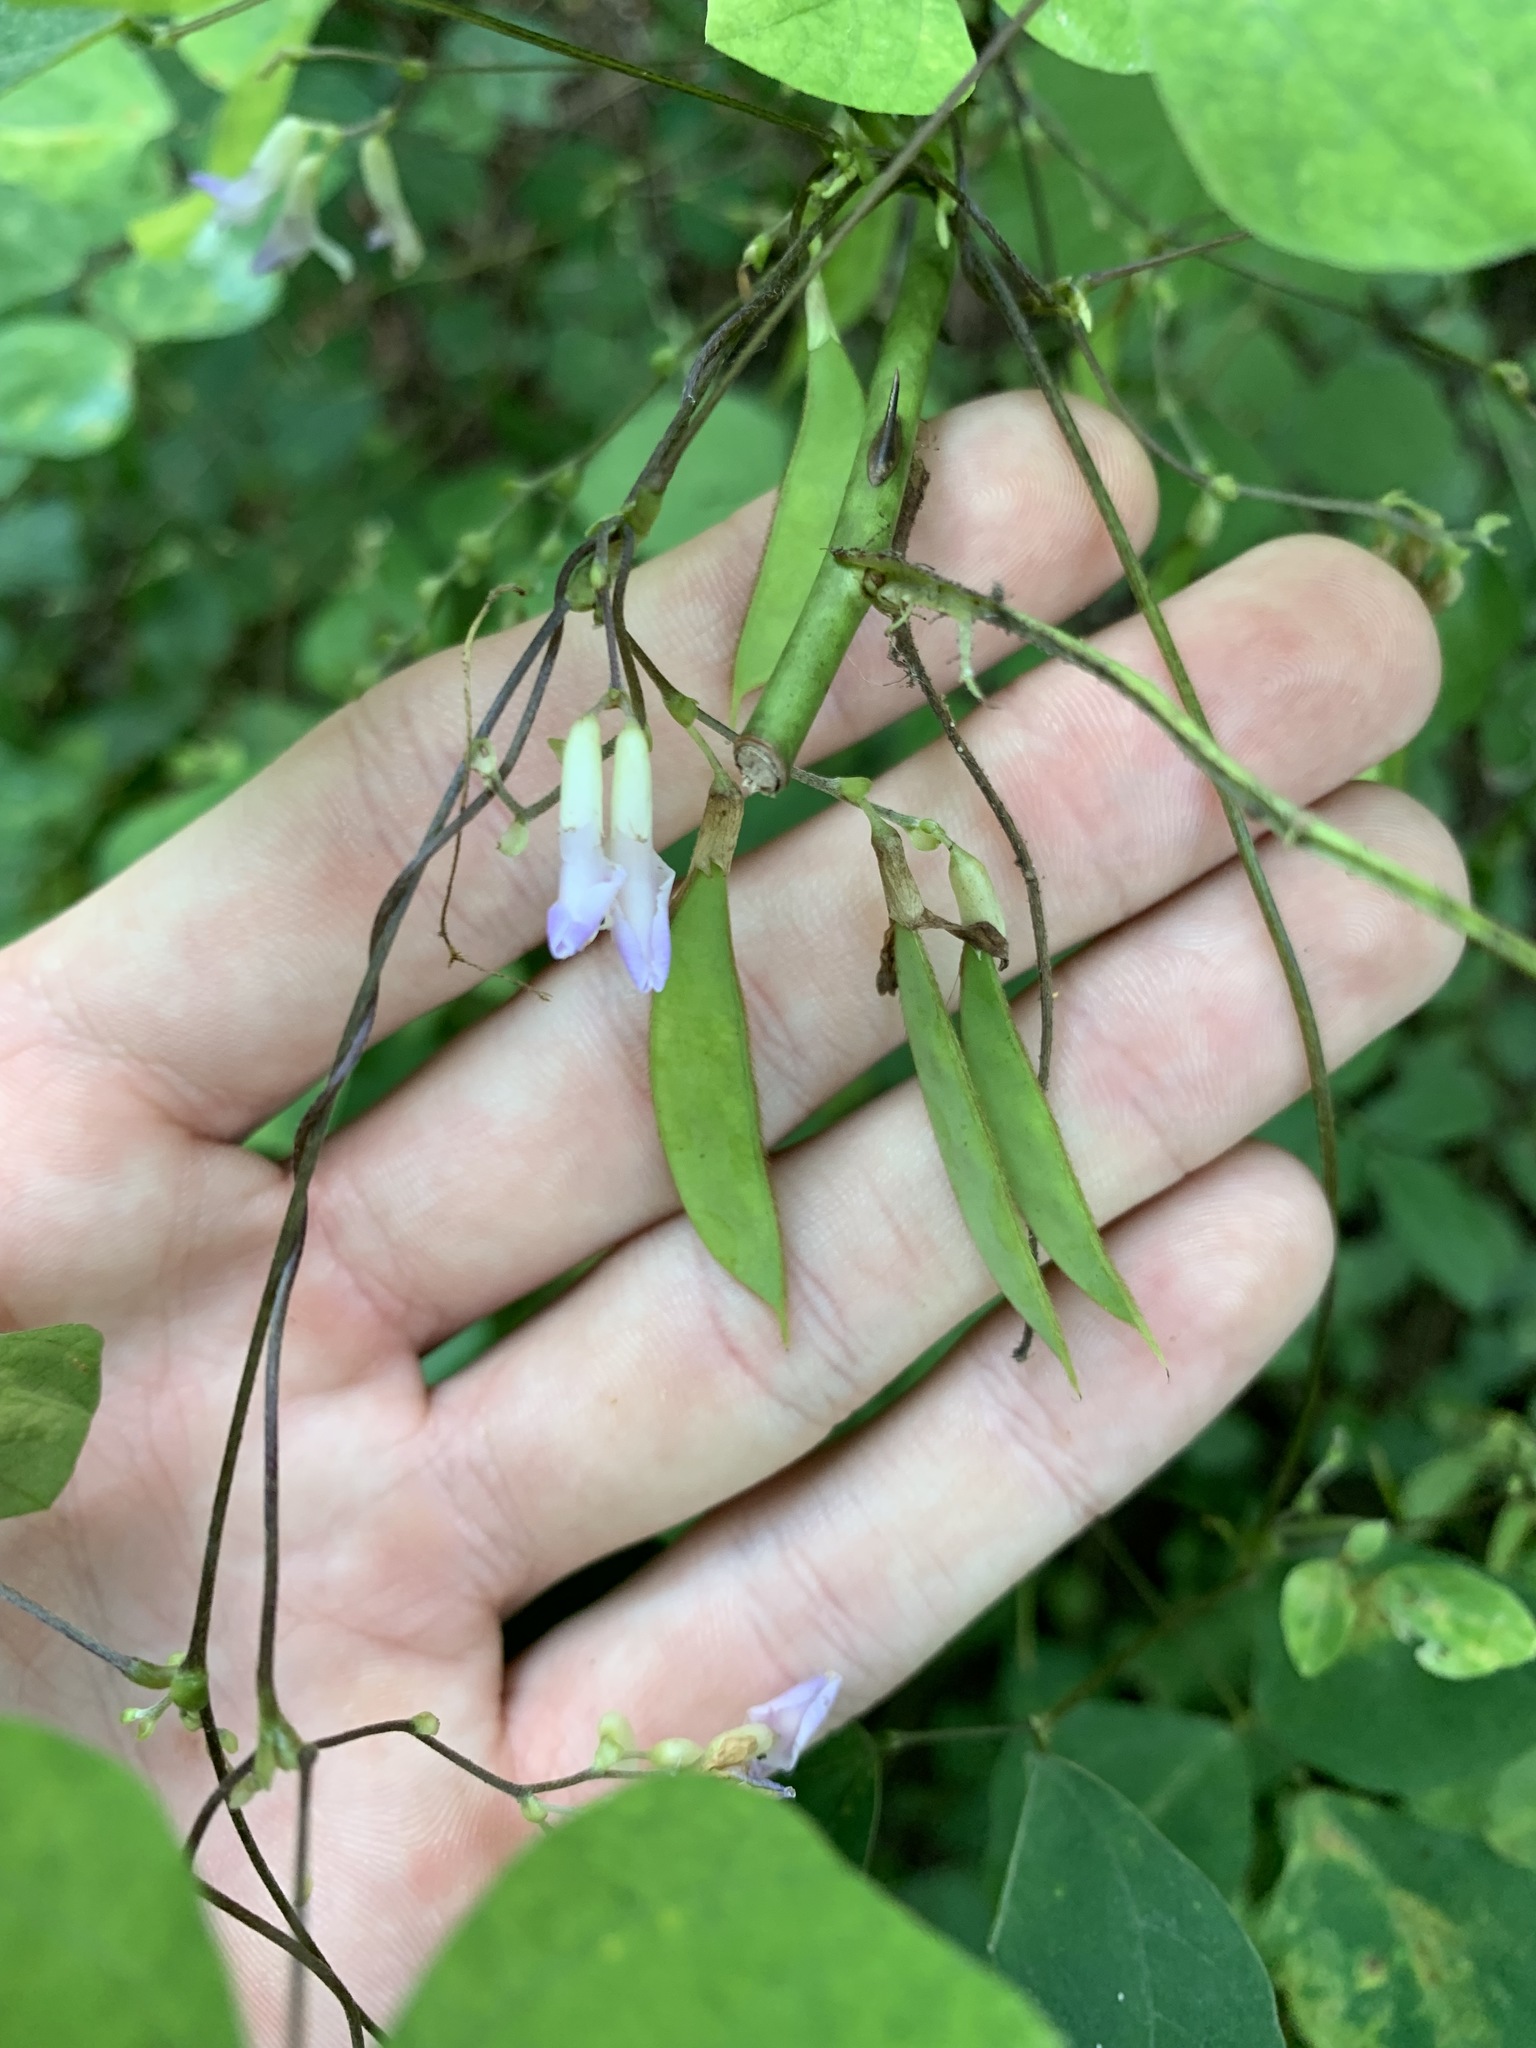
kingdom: Plantae
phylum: Tracheophyta
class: Magnoliopsida
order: Fabales
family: Fabaceae
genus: Amphicarpaea
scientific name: Amphicarpaea bracteata
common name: American hog peanut
